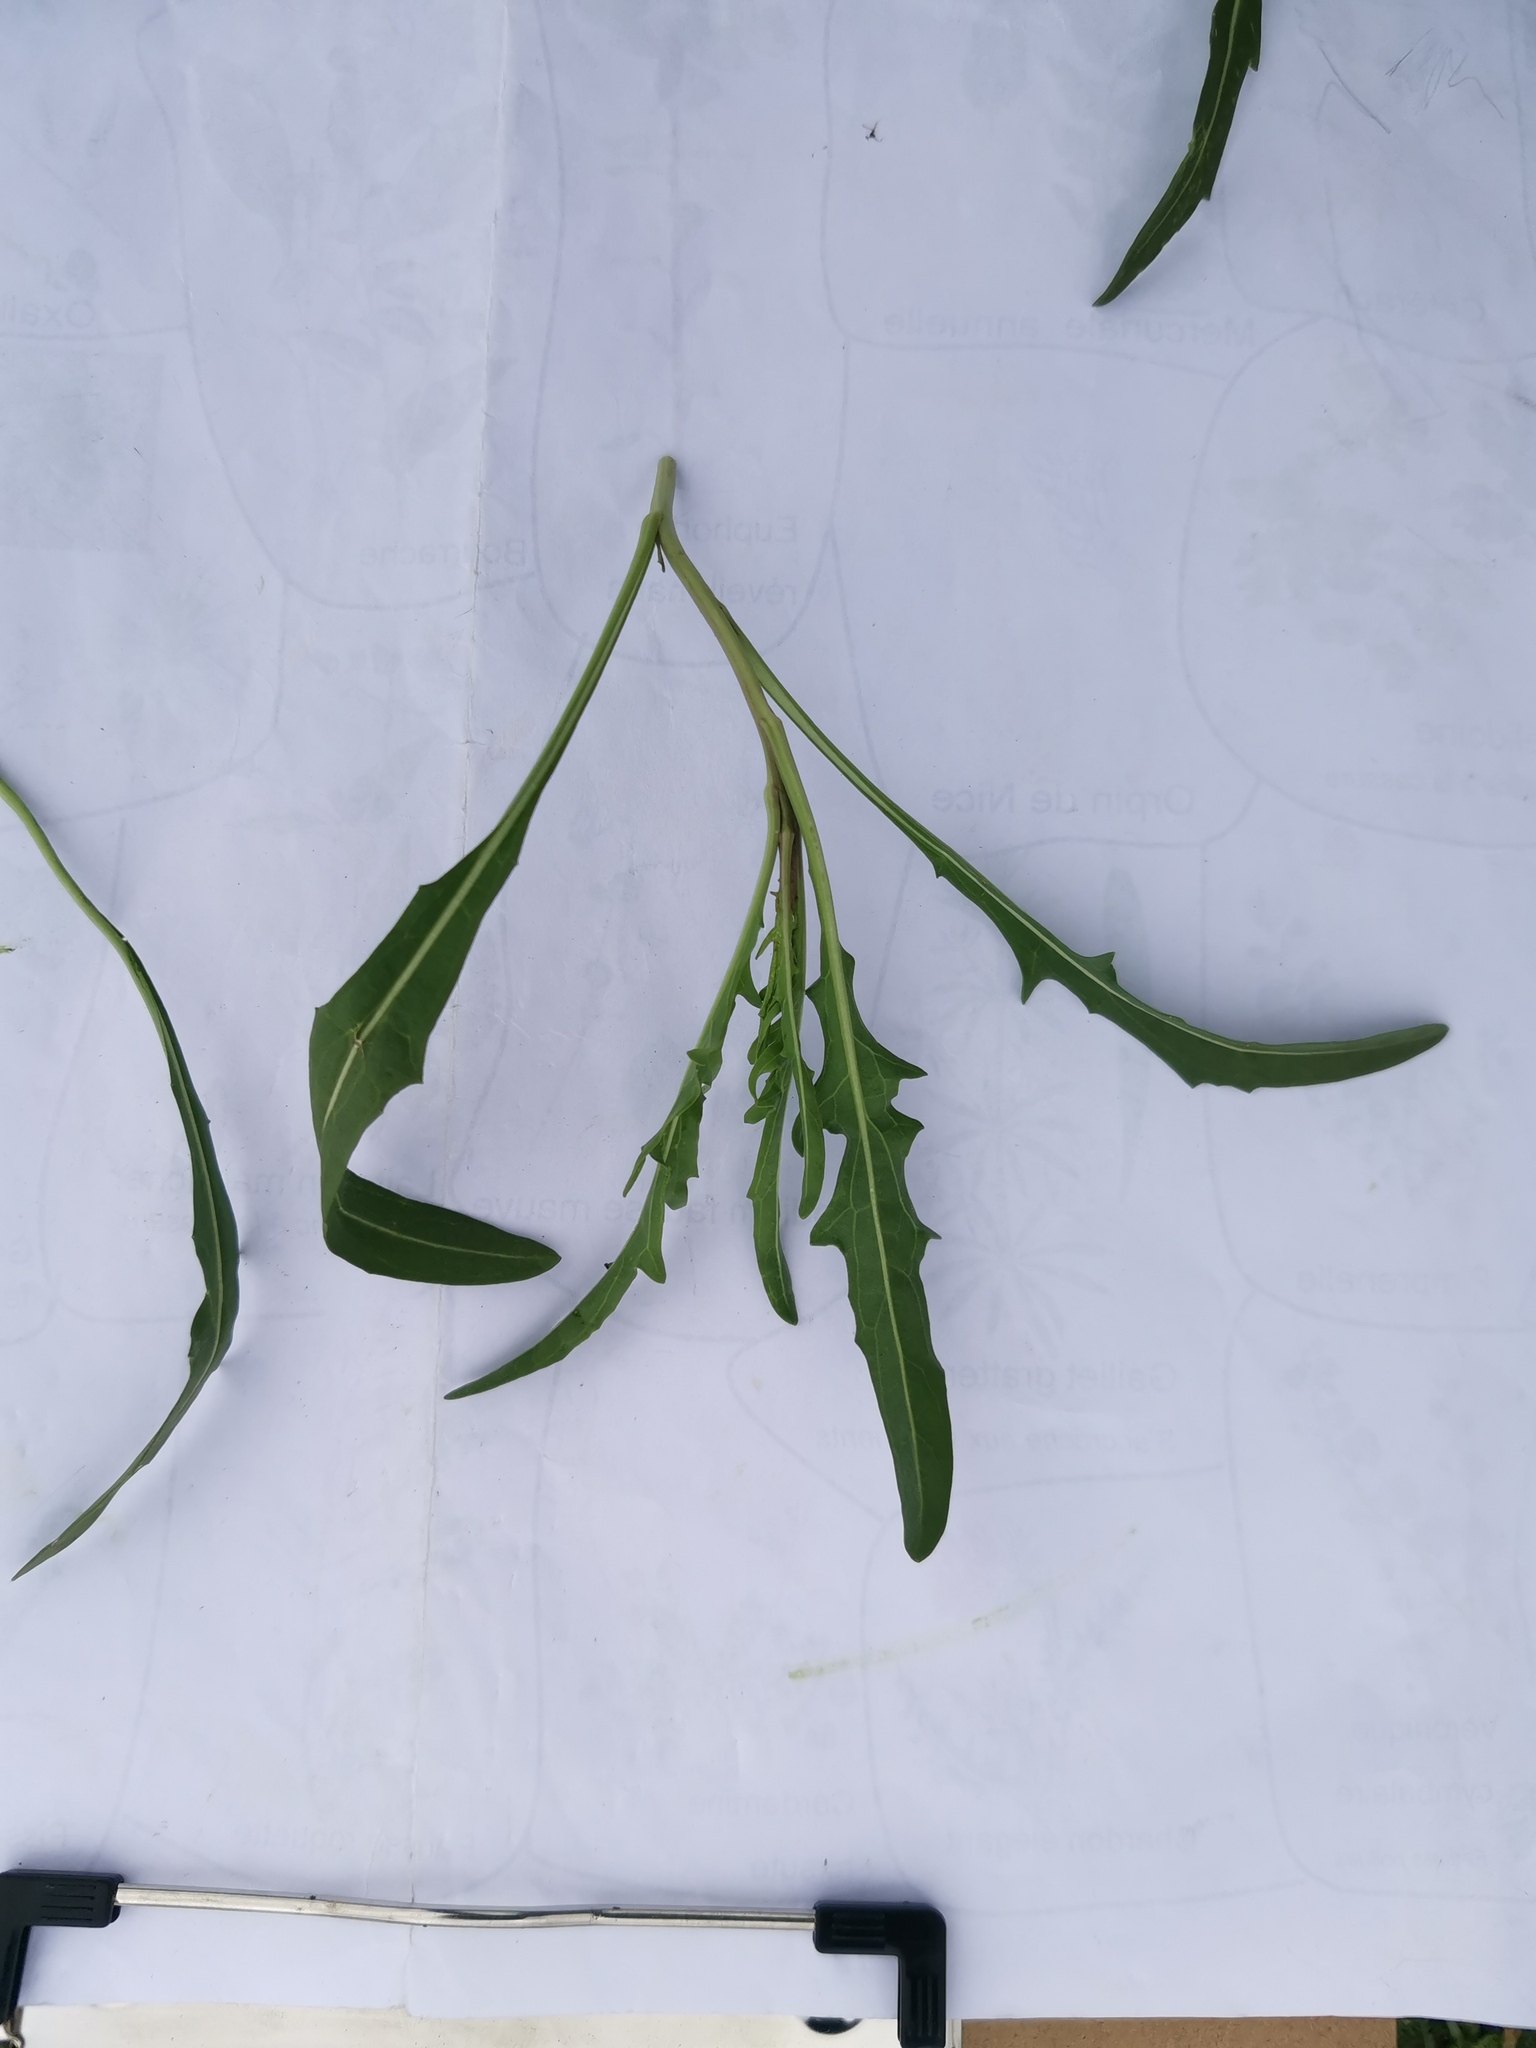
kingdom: Plantae
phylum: Tracheophyta
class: Magnoliopsida
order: Brassicales
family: Brassicaceae
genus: Diplotaxis
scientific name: Diplotaxis tenuifolia
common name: Perennial wall-rocket
